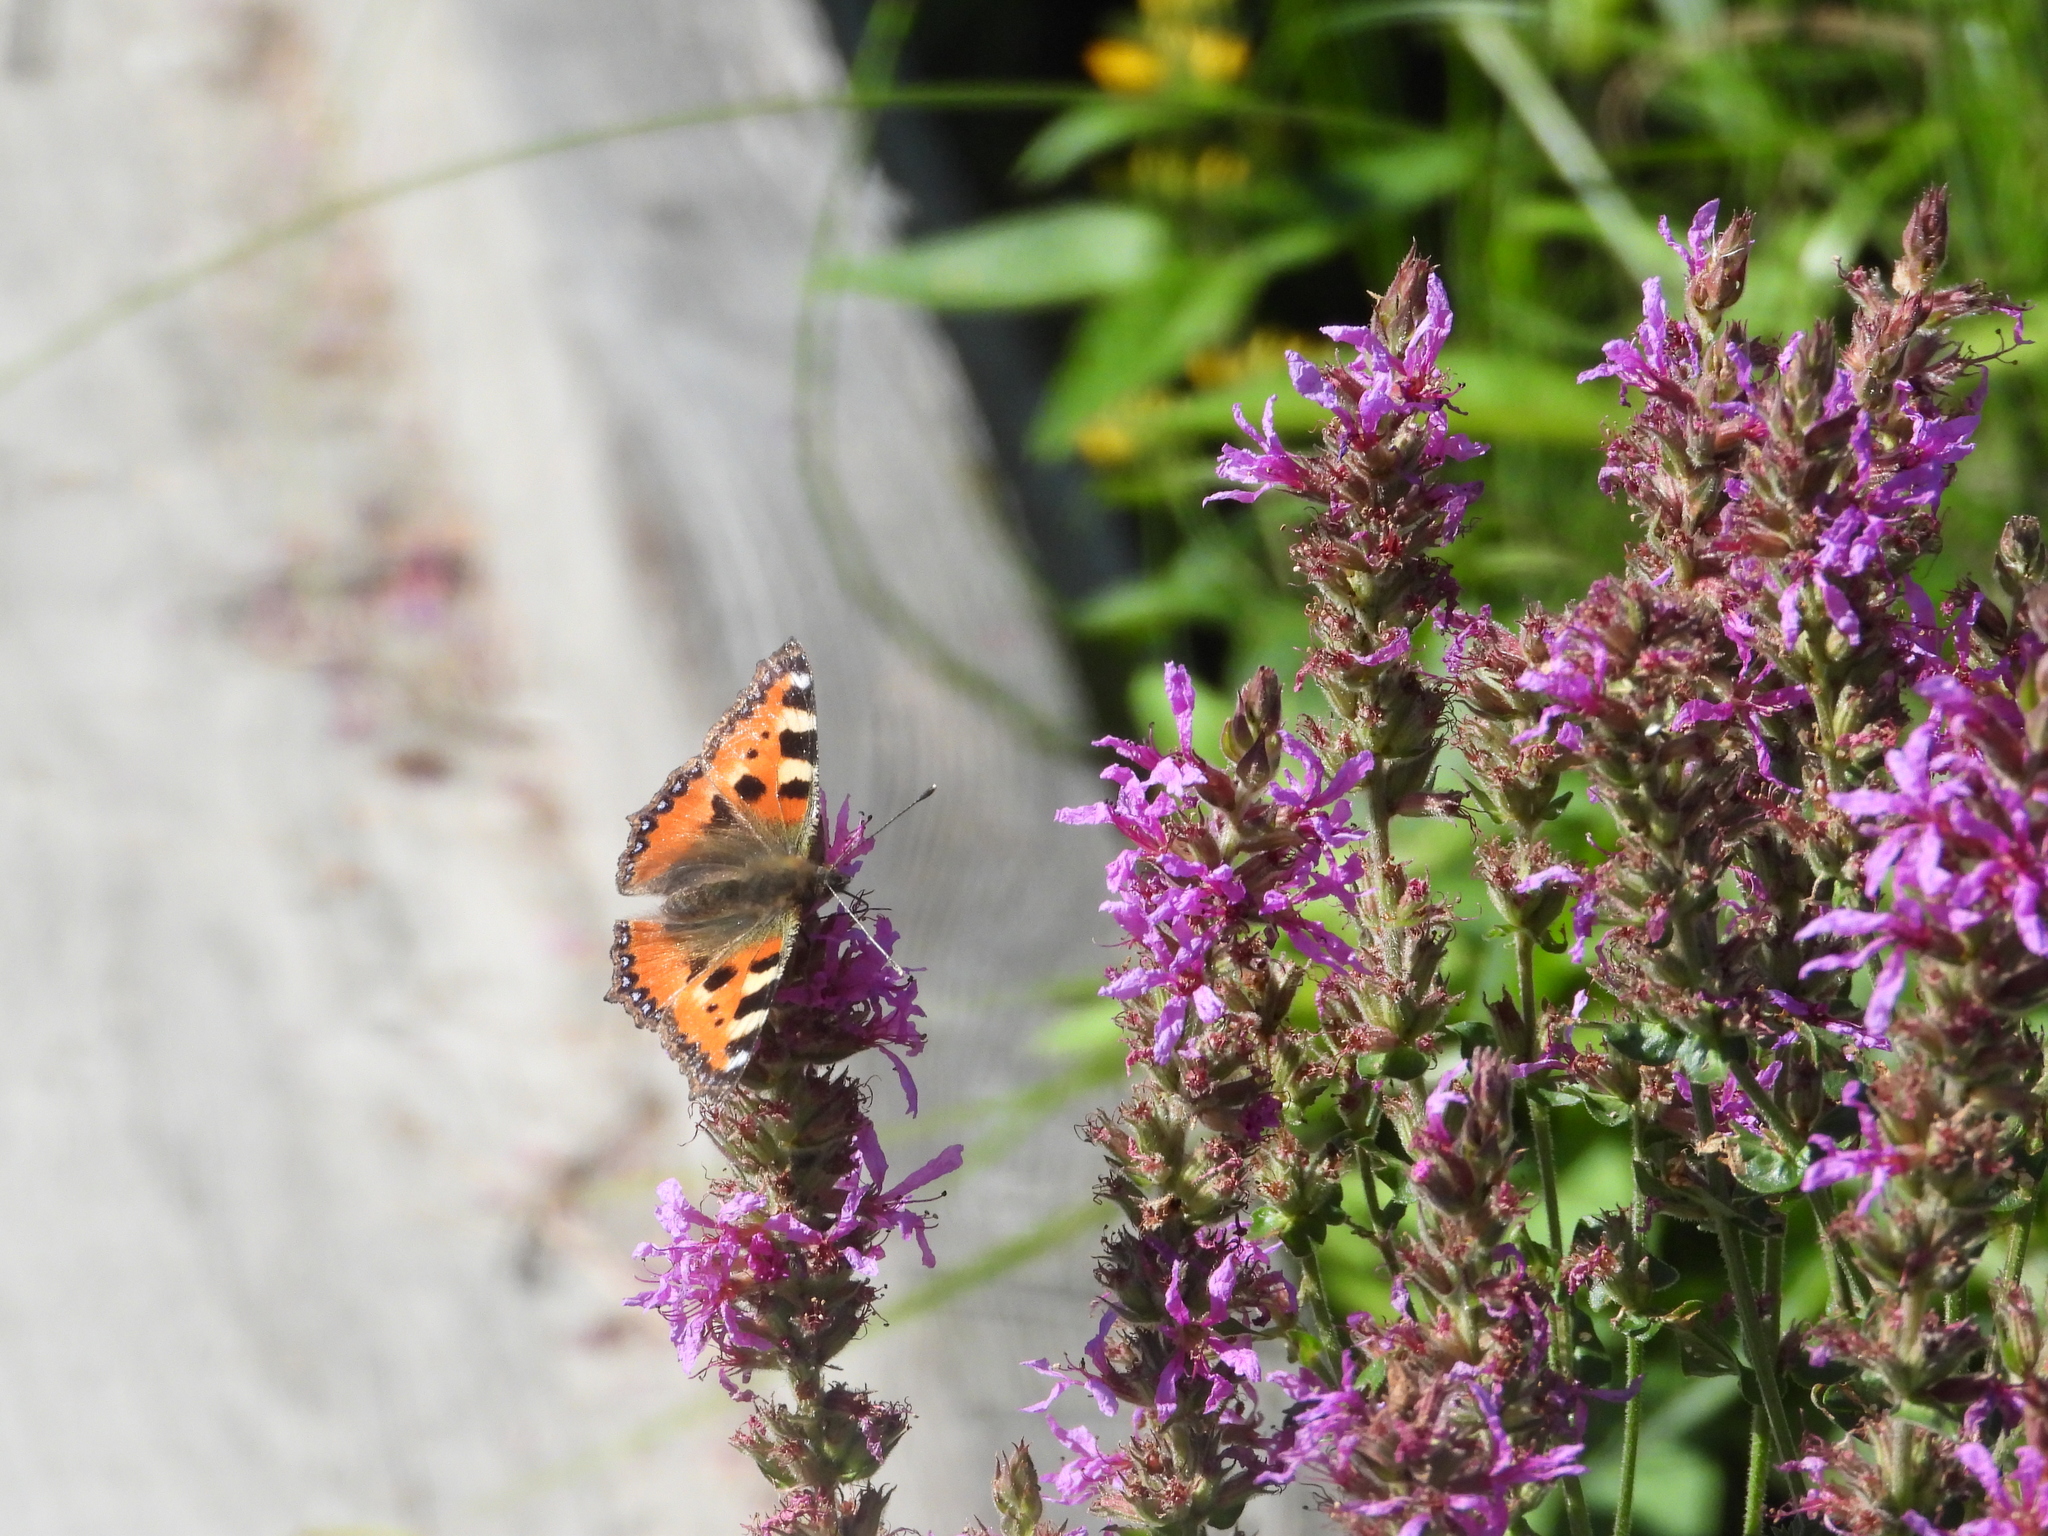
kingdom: Animalia
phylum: Arthropoda
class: Insecta
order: Lepidoptera
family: Nymphalidae
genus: Aglais
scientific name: Aglais urticae
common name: Small tortoiseshell
